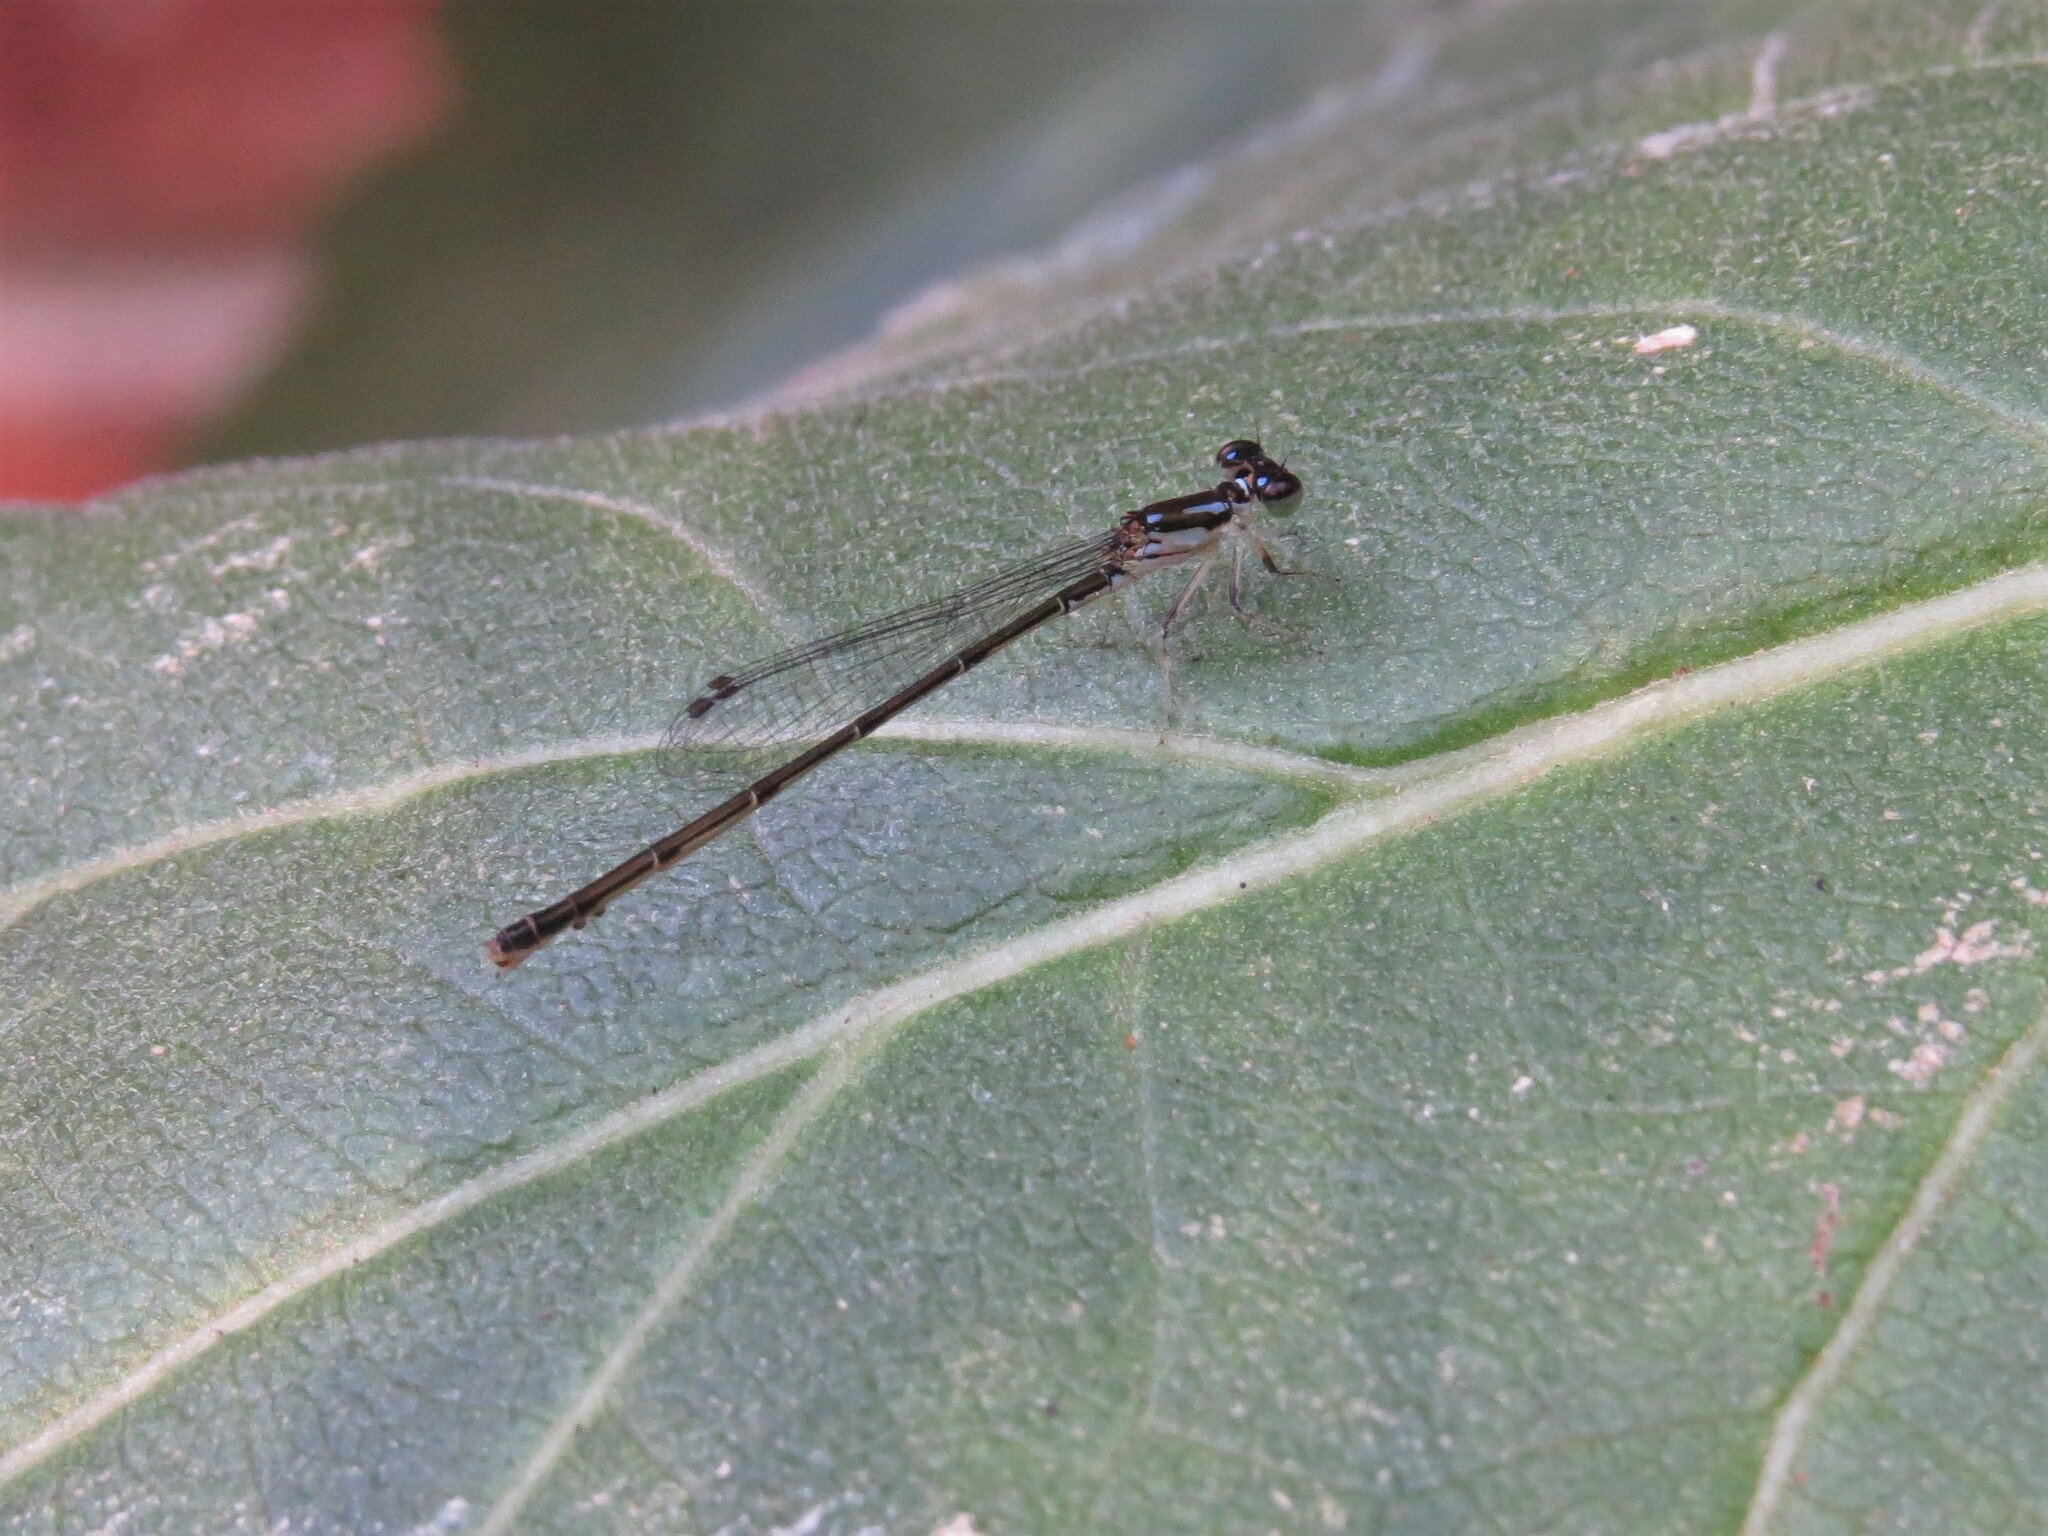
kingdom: Animalia
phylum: Arthropoda
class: Insecta
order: Odonata
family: Coenagrionidae
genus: Ischnura
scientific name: Ischnura posita
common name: Fragile forktail
